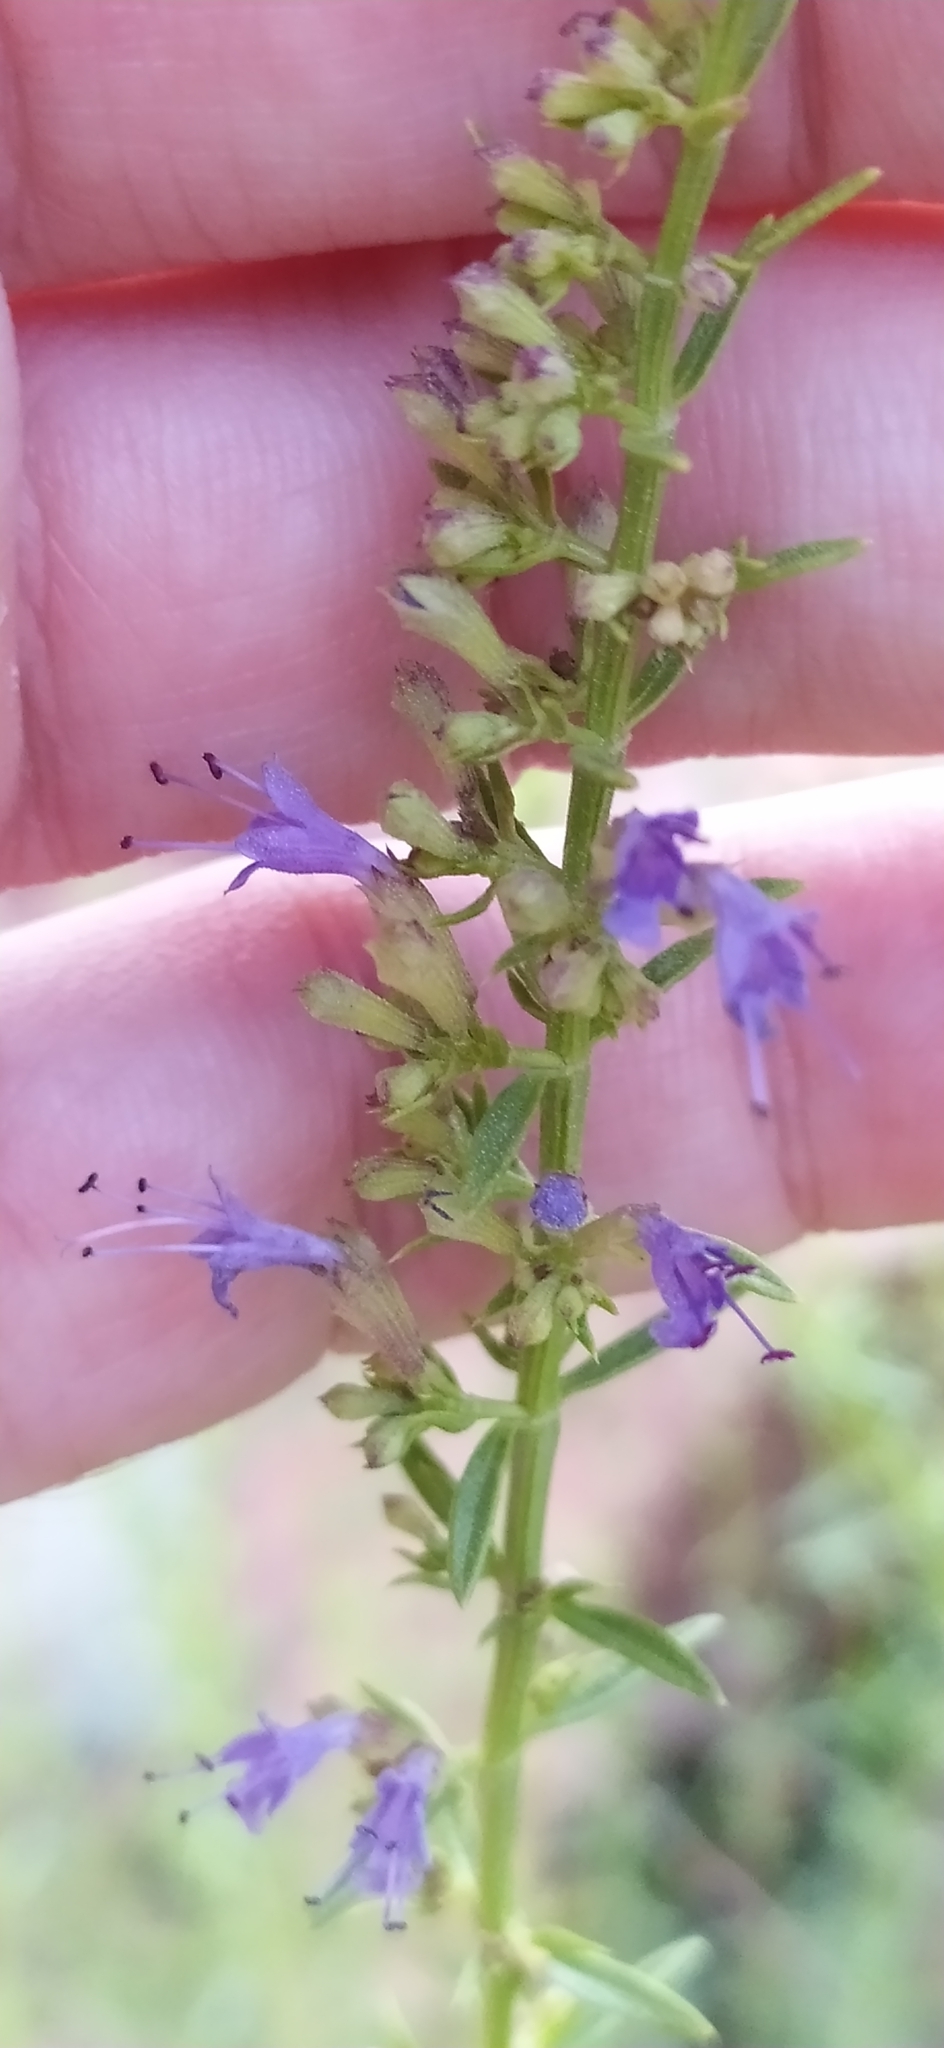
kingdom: Plantae
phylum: Tracheophyta
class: Magnoliopsida
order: Lamiales
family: Lamiaceae
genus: Hyssopus
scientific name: Hyssopus seravschanicus
